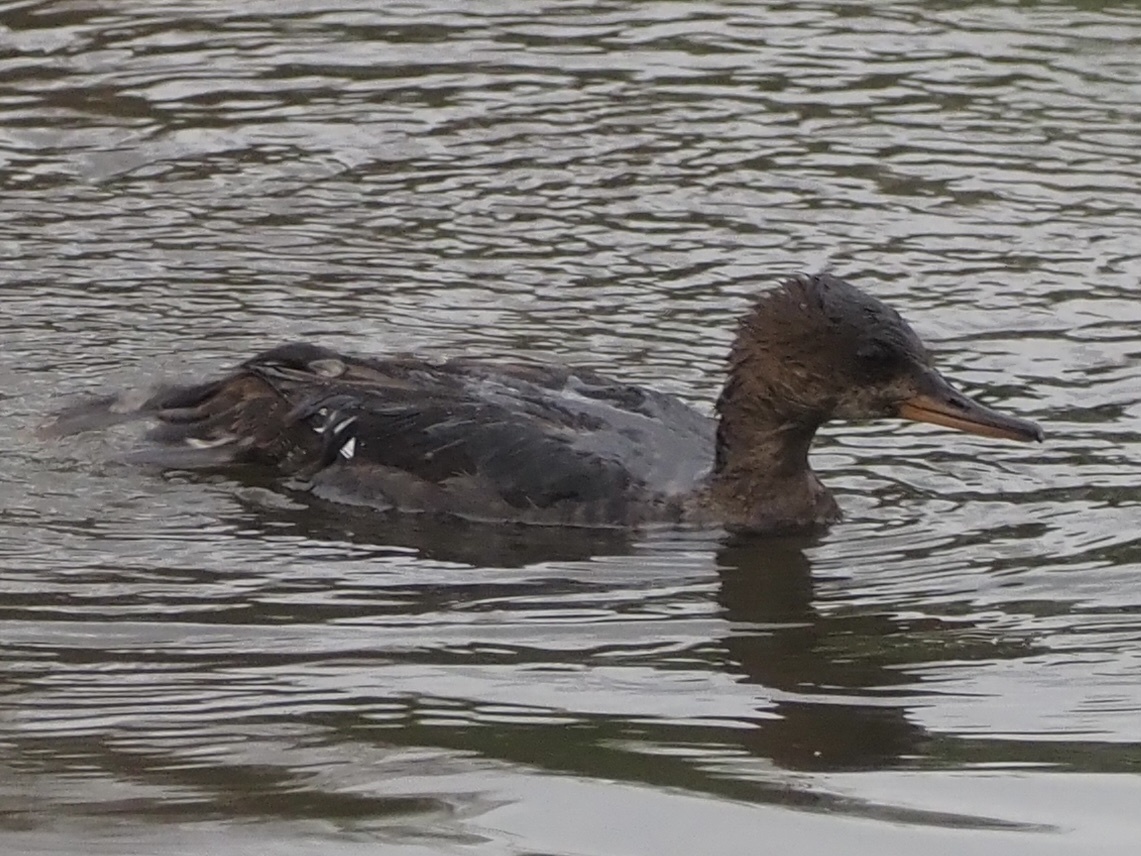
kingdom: Animalia
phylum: Chordata
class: Aves
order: Anseriformes
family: Anatidae
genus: Lophodytes
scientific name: Lophodytes cucullatus
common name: Hooded merganser
